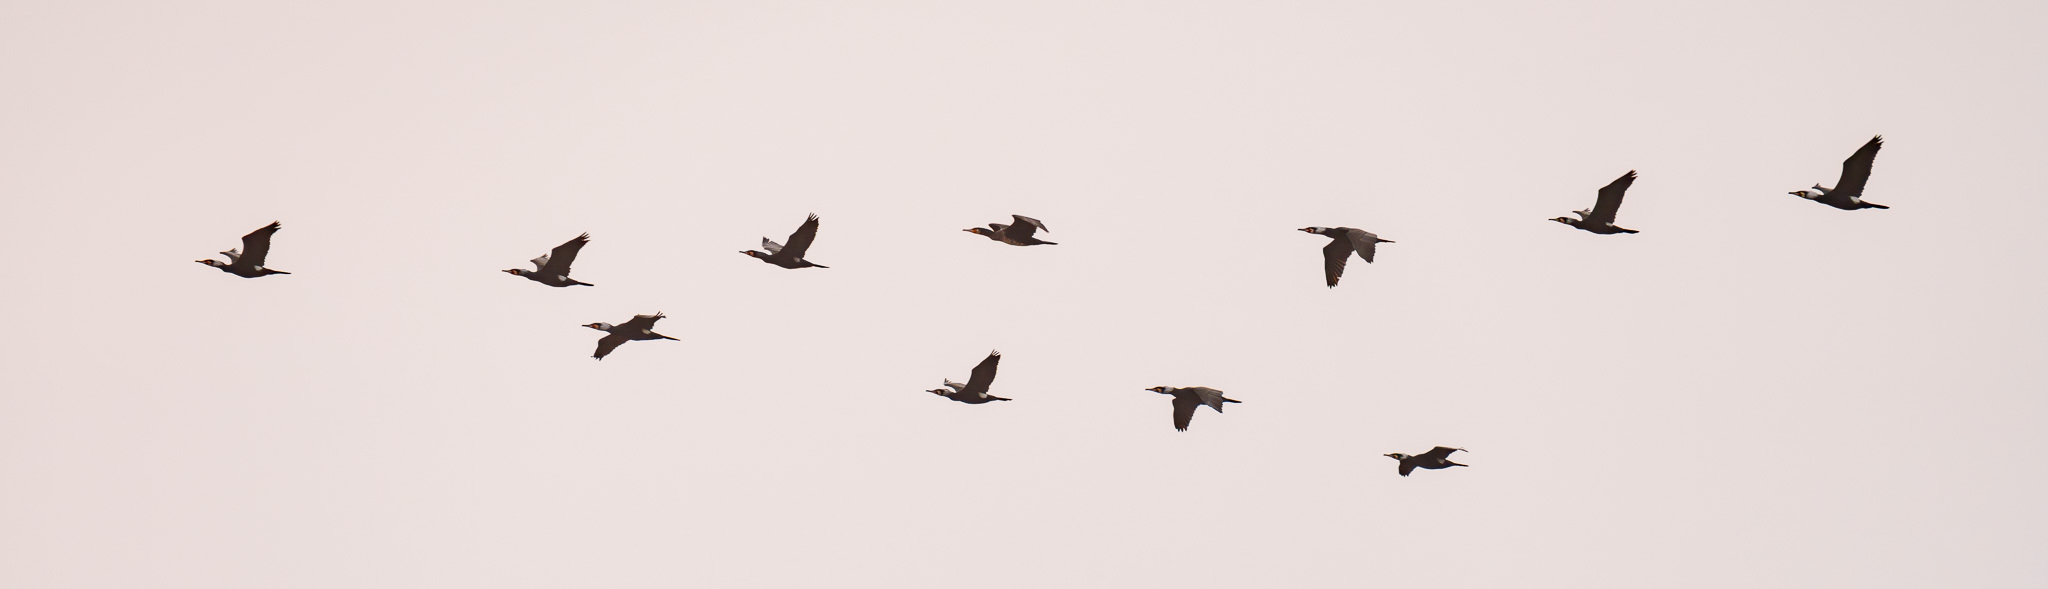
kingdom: Animalia
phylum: Chordata
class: Aves
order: Suliformes
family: Phalacrocoracidae
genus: Phalacrocorax
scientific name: Phalacrocorax carbo
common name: Great cormorant
